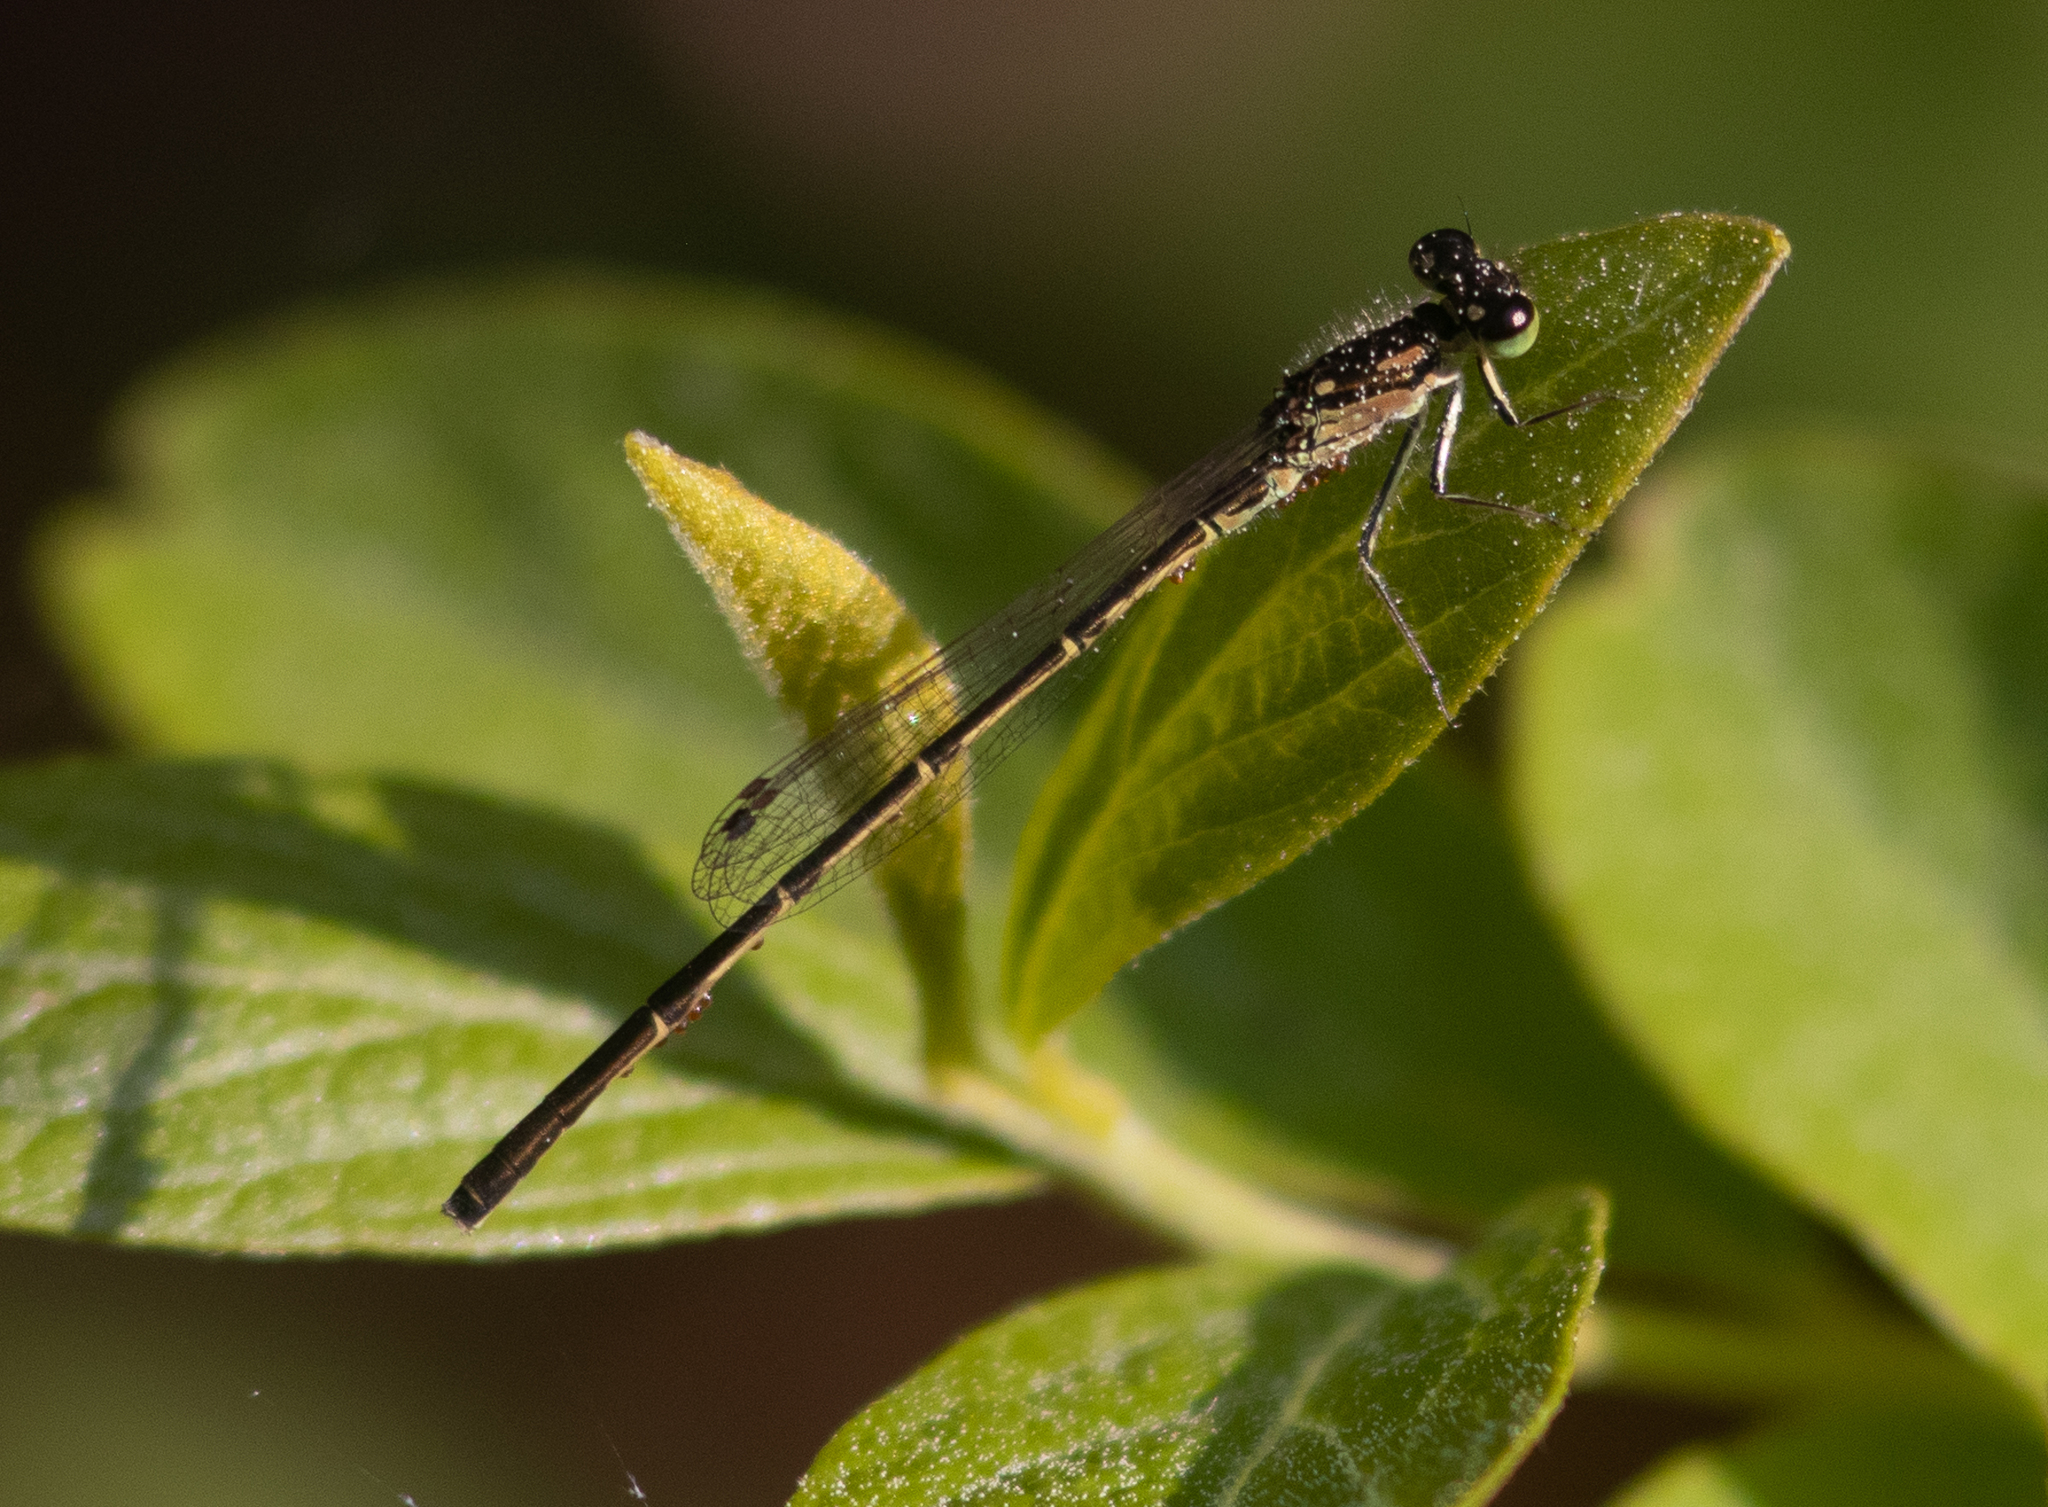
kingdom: Animalia
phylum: Arthropoda
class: Insecta
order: Odonata
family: Coenagrionidae
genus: Ischnura
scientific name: Ischnura posita
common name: Fragile forktail
